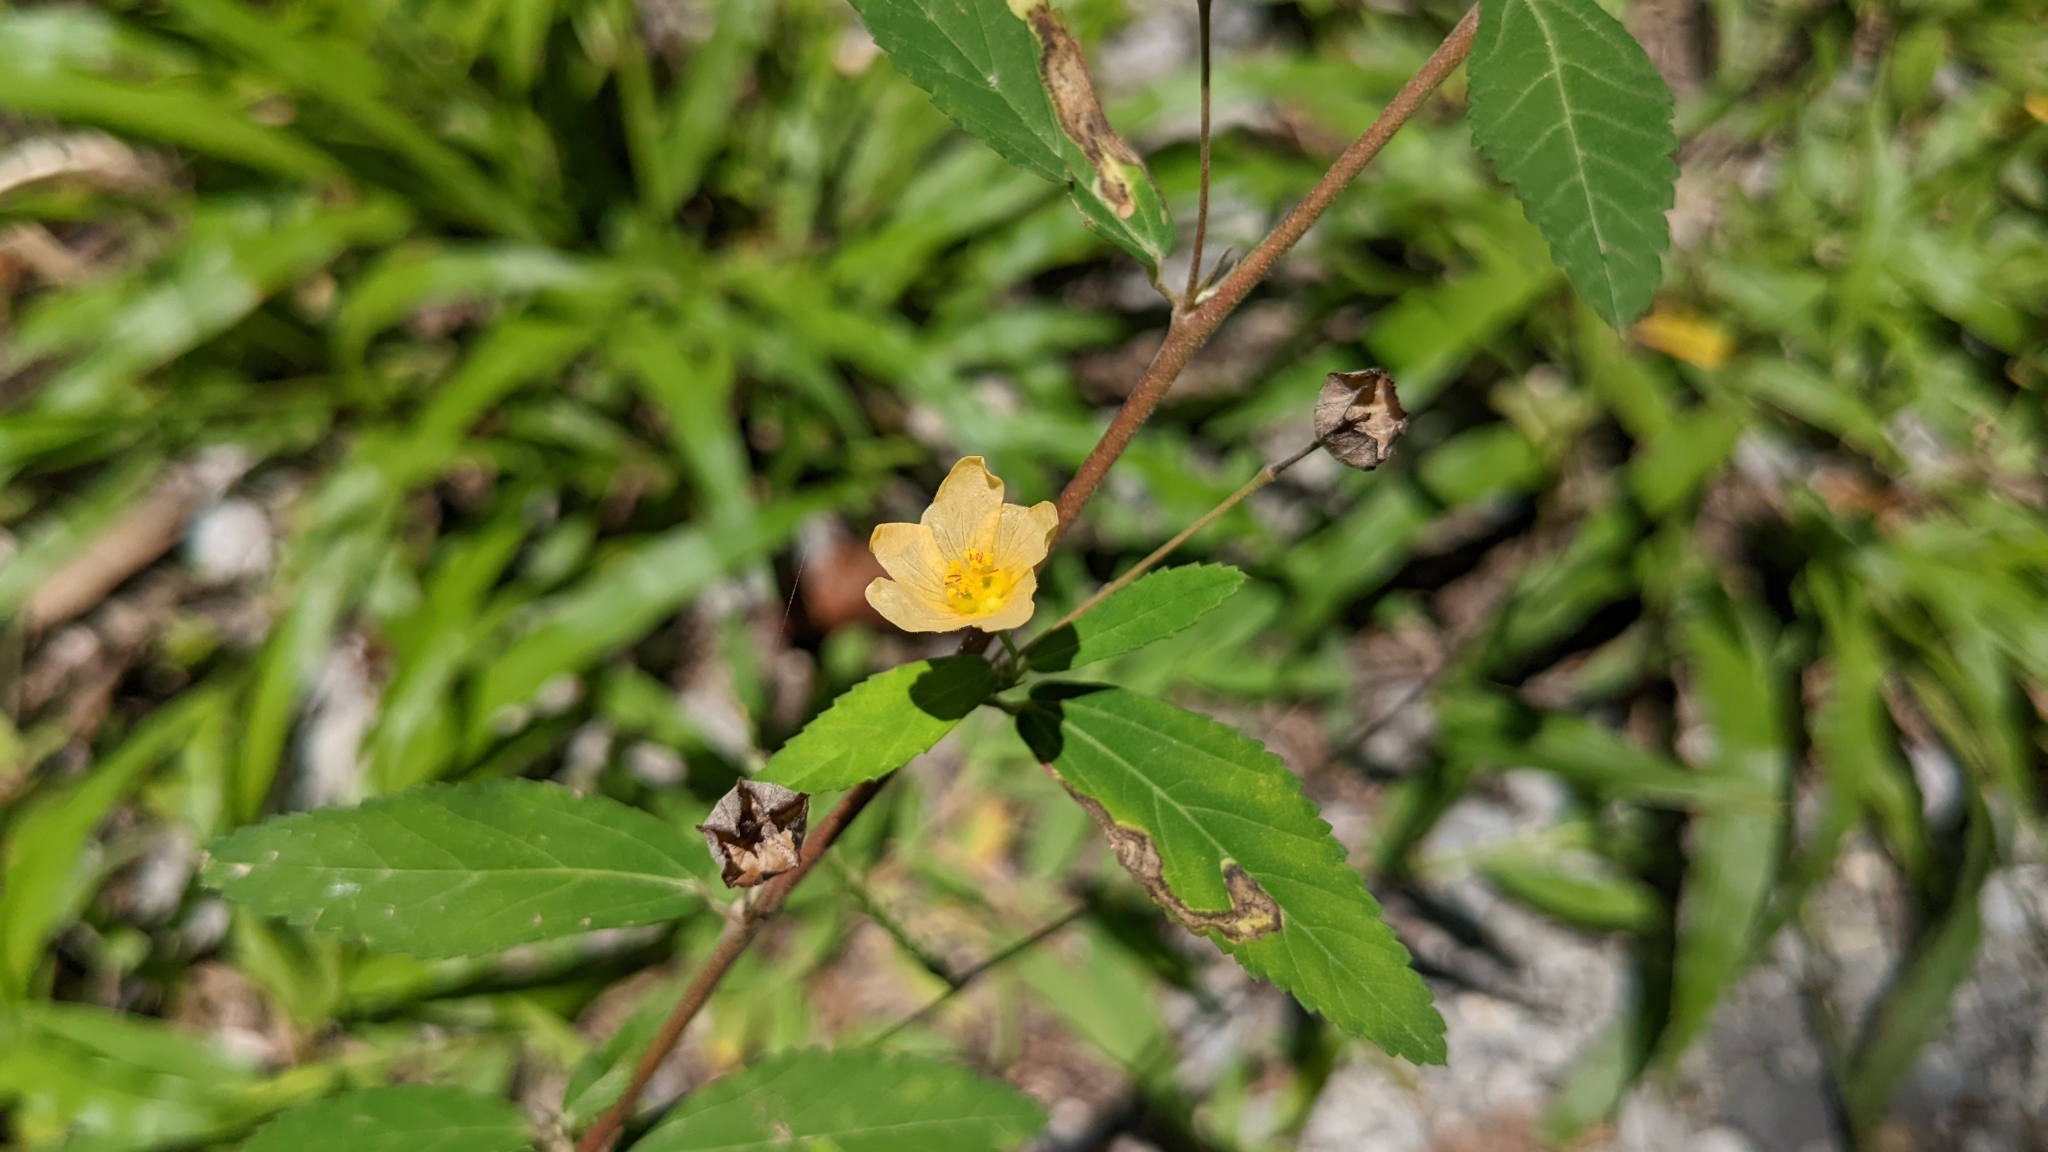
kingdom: Plantae
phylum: Tracheophyta
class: Magnoliopsida
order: Malvales
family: Malvaceae
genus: Sida
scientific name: Sida rhombifolia
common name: Queensland-hemp
